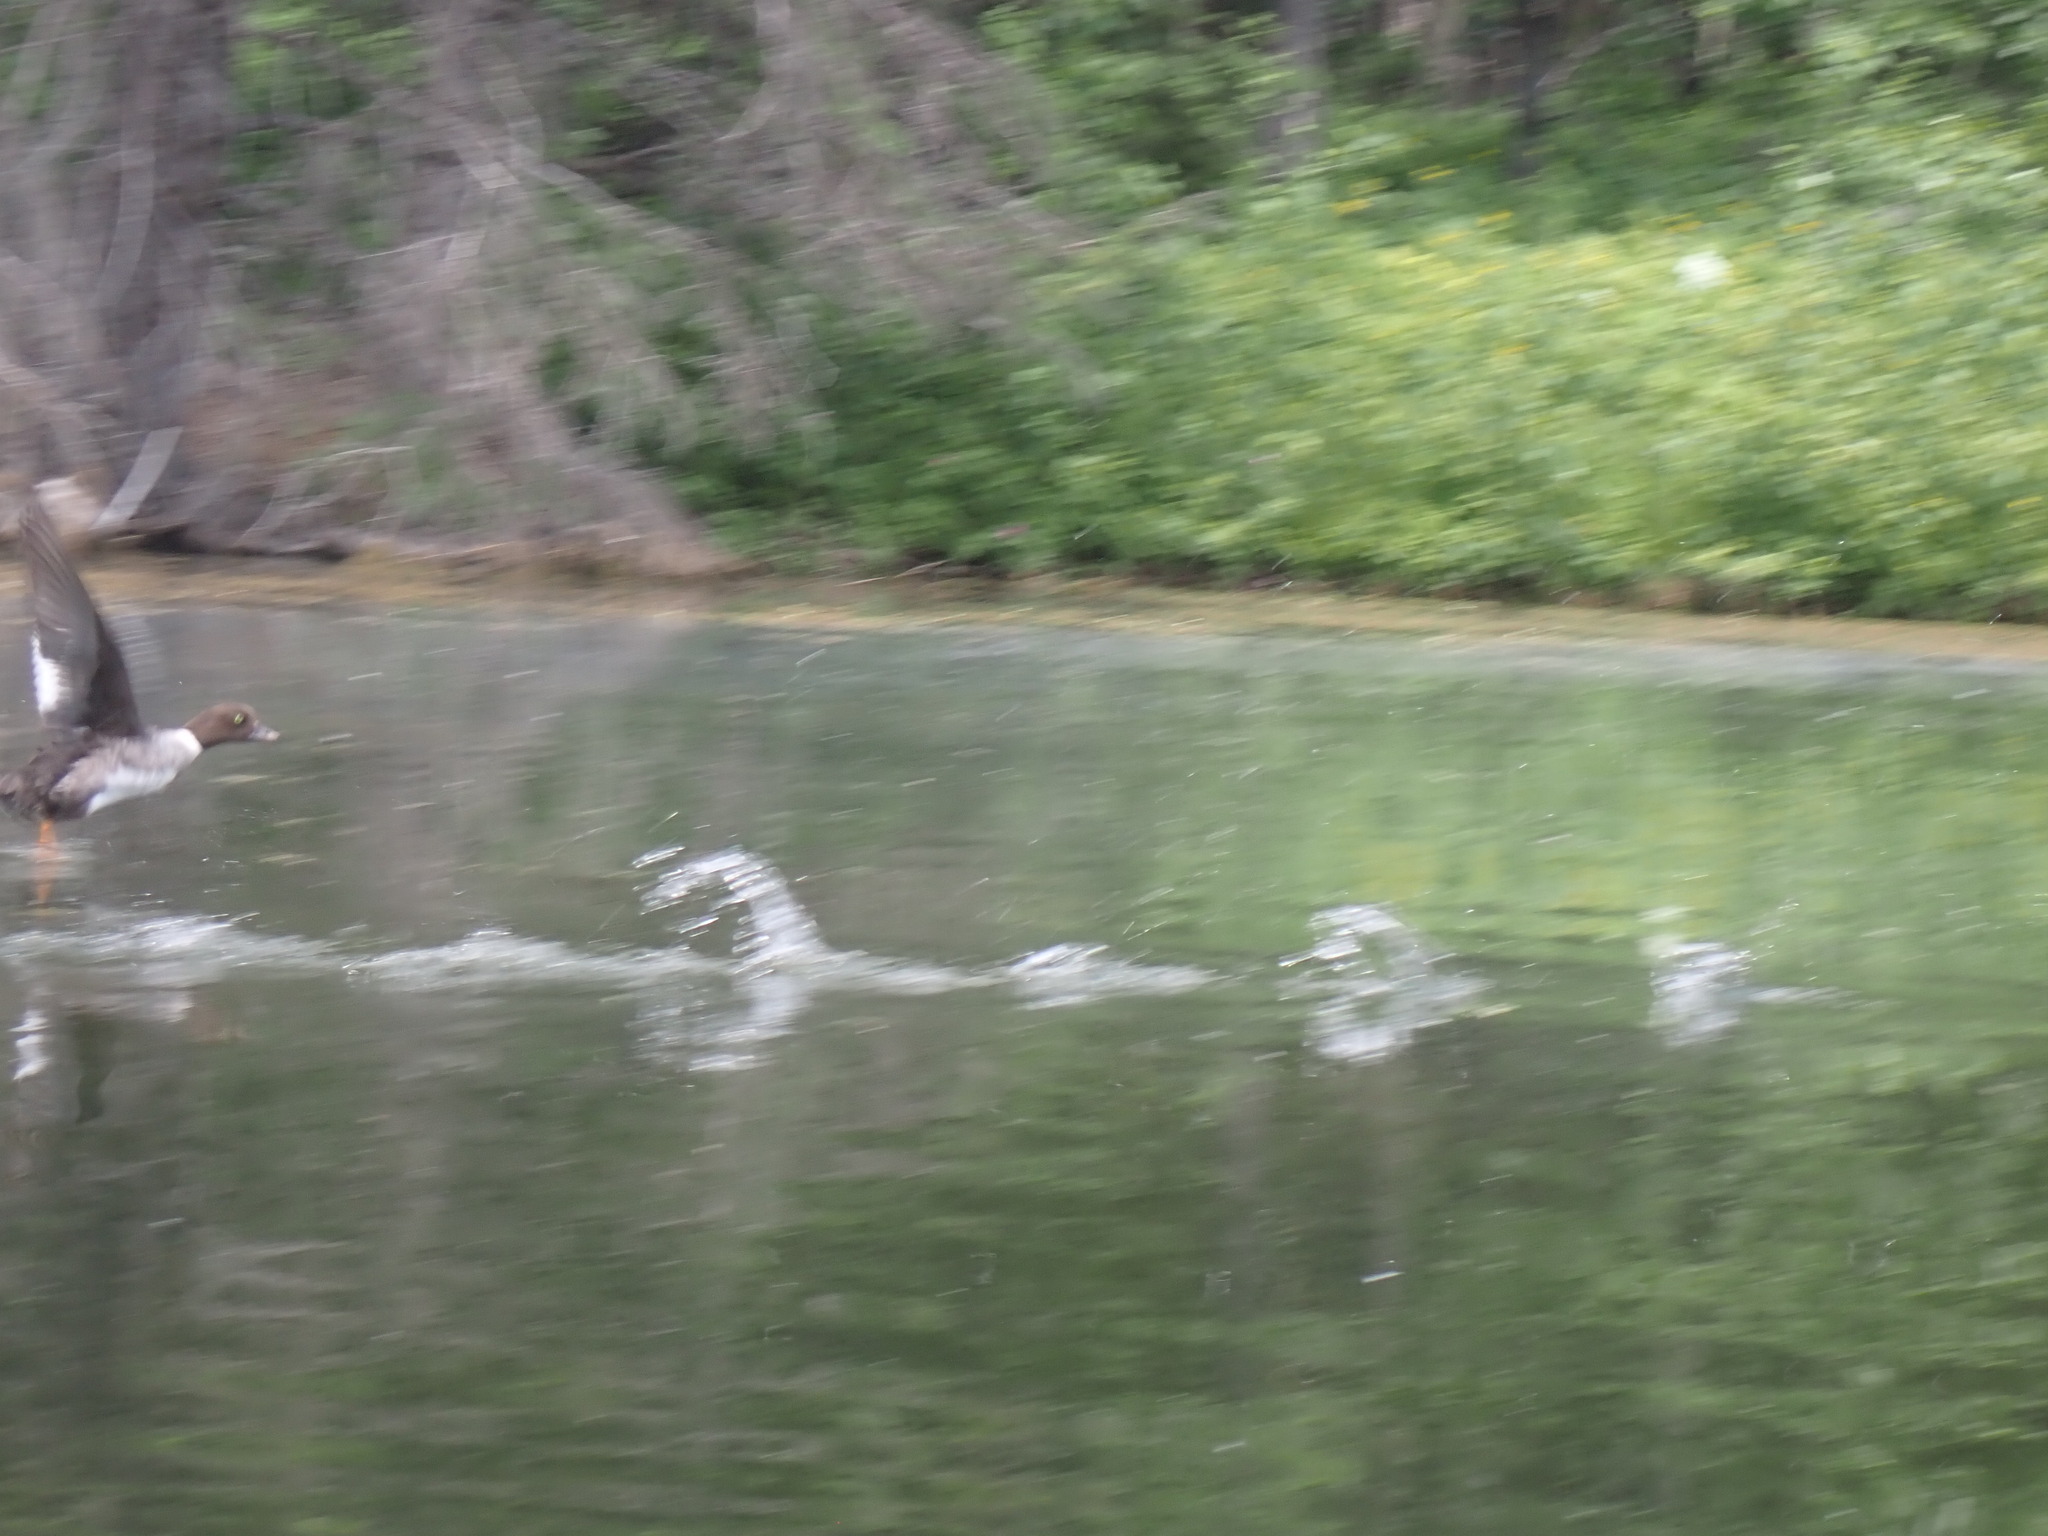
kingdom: Animalia
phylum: Chordata
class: Aves
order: Anseriformes
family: Anatidae
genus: Bucephala
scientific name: Bucephala islandica
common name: Barrow's goldeneye
